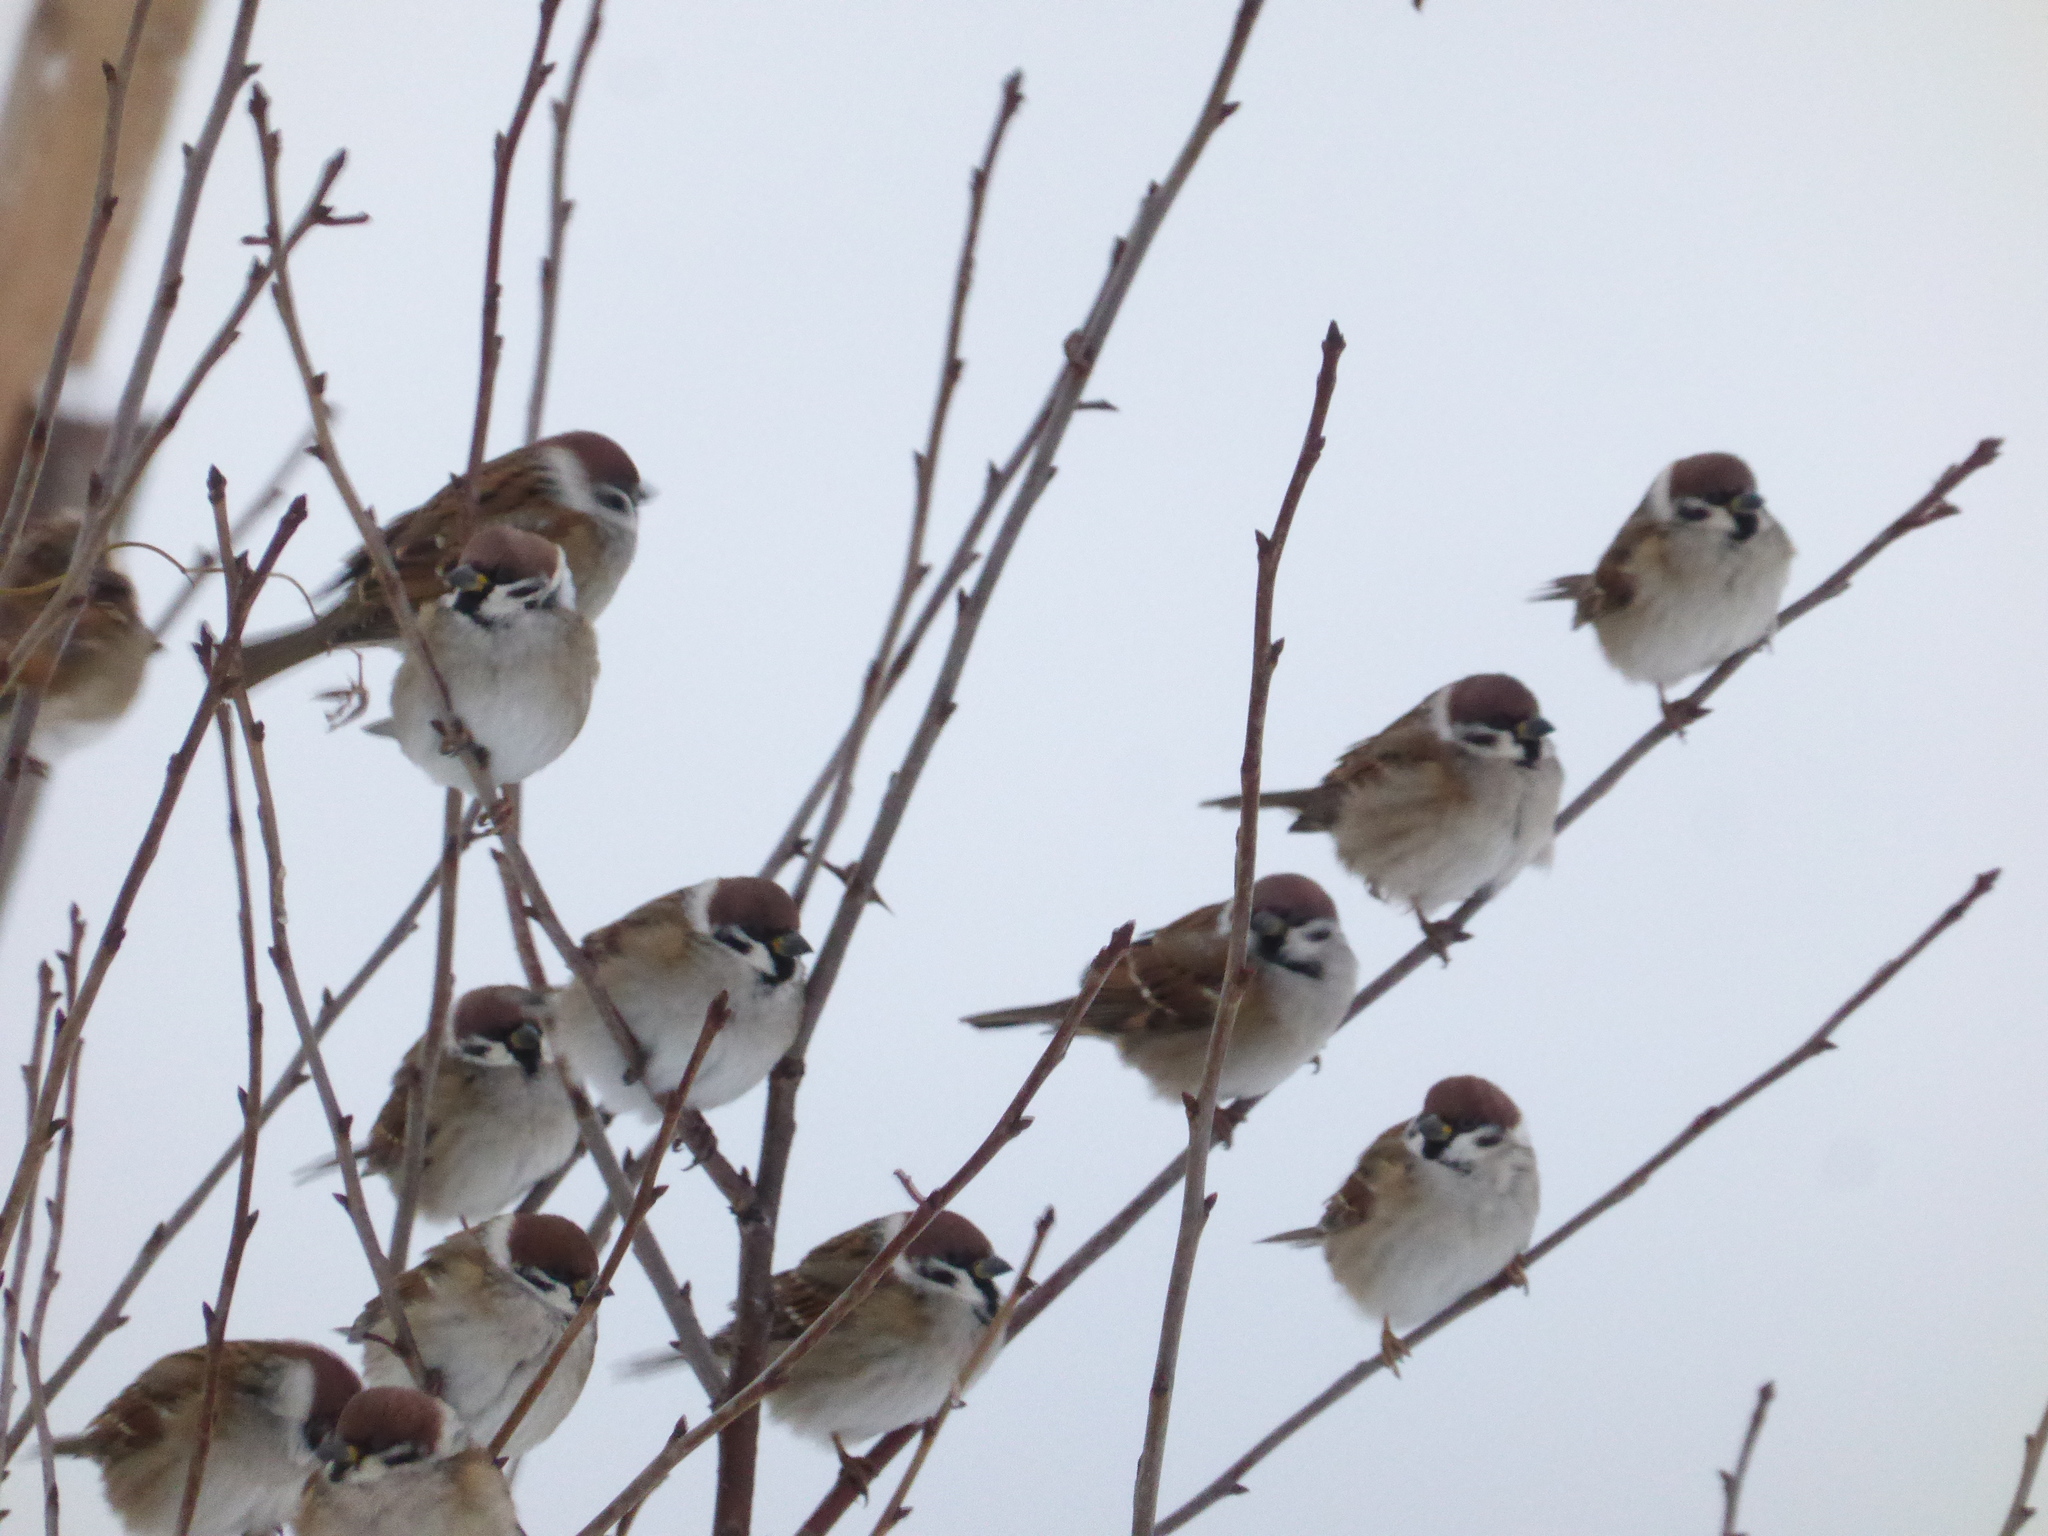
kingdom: Animalia
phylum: Chordata
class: Aves
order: Passeriformes
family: Passeridae
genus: Passer
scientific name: Passer montanus
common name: Eurasian tree sparrow
